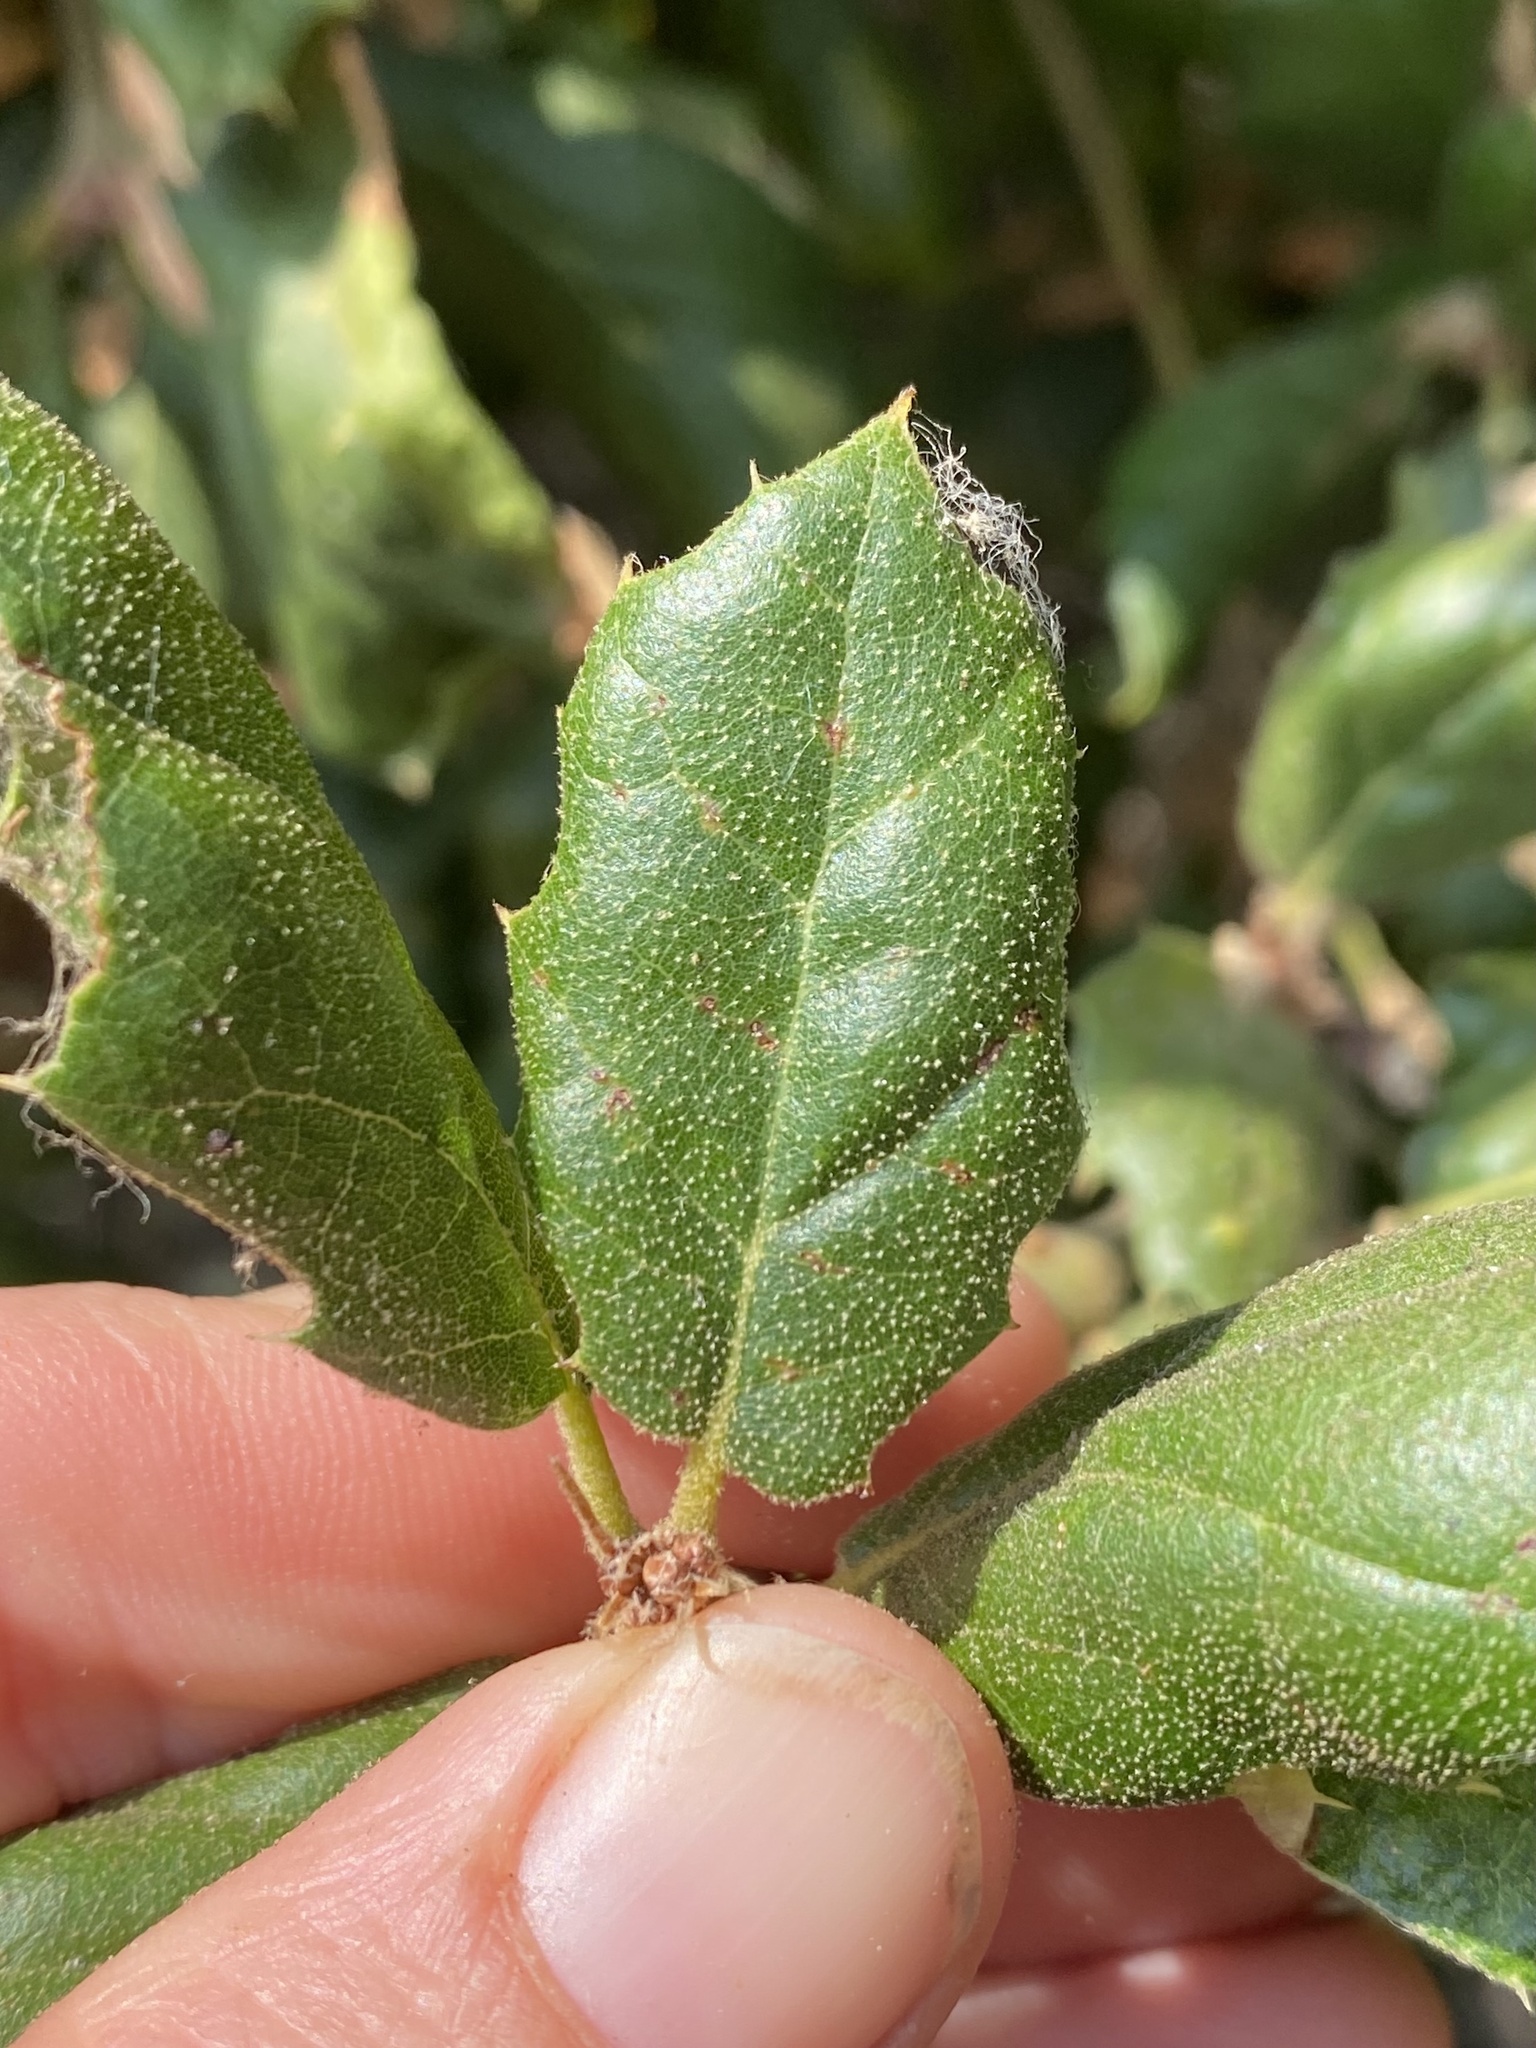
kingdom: Plantae
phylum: Tracheophyta
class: Magnoliopsida
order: Fagales
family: Fagaceae
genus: Quercus
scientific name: Quercus agrifolia
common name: California live oak
